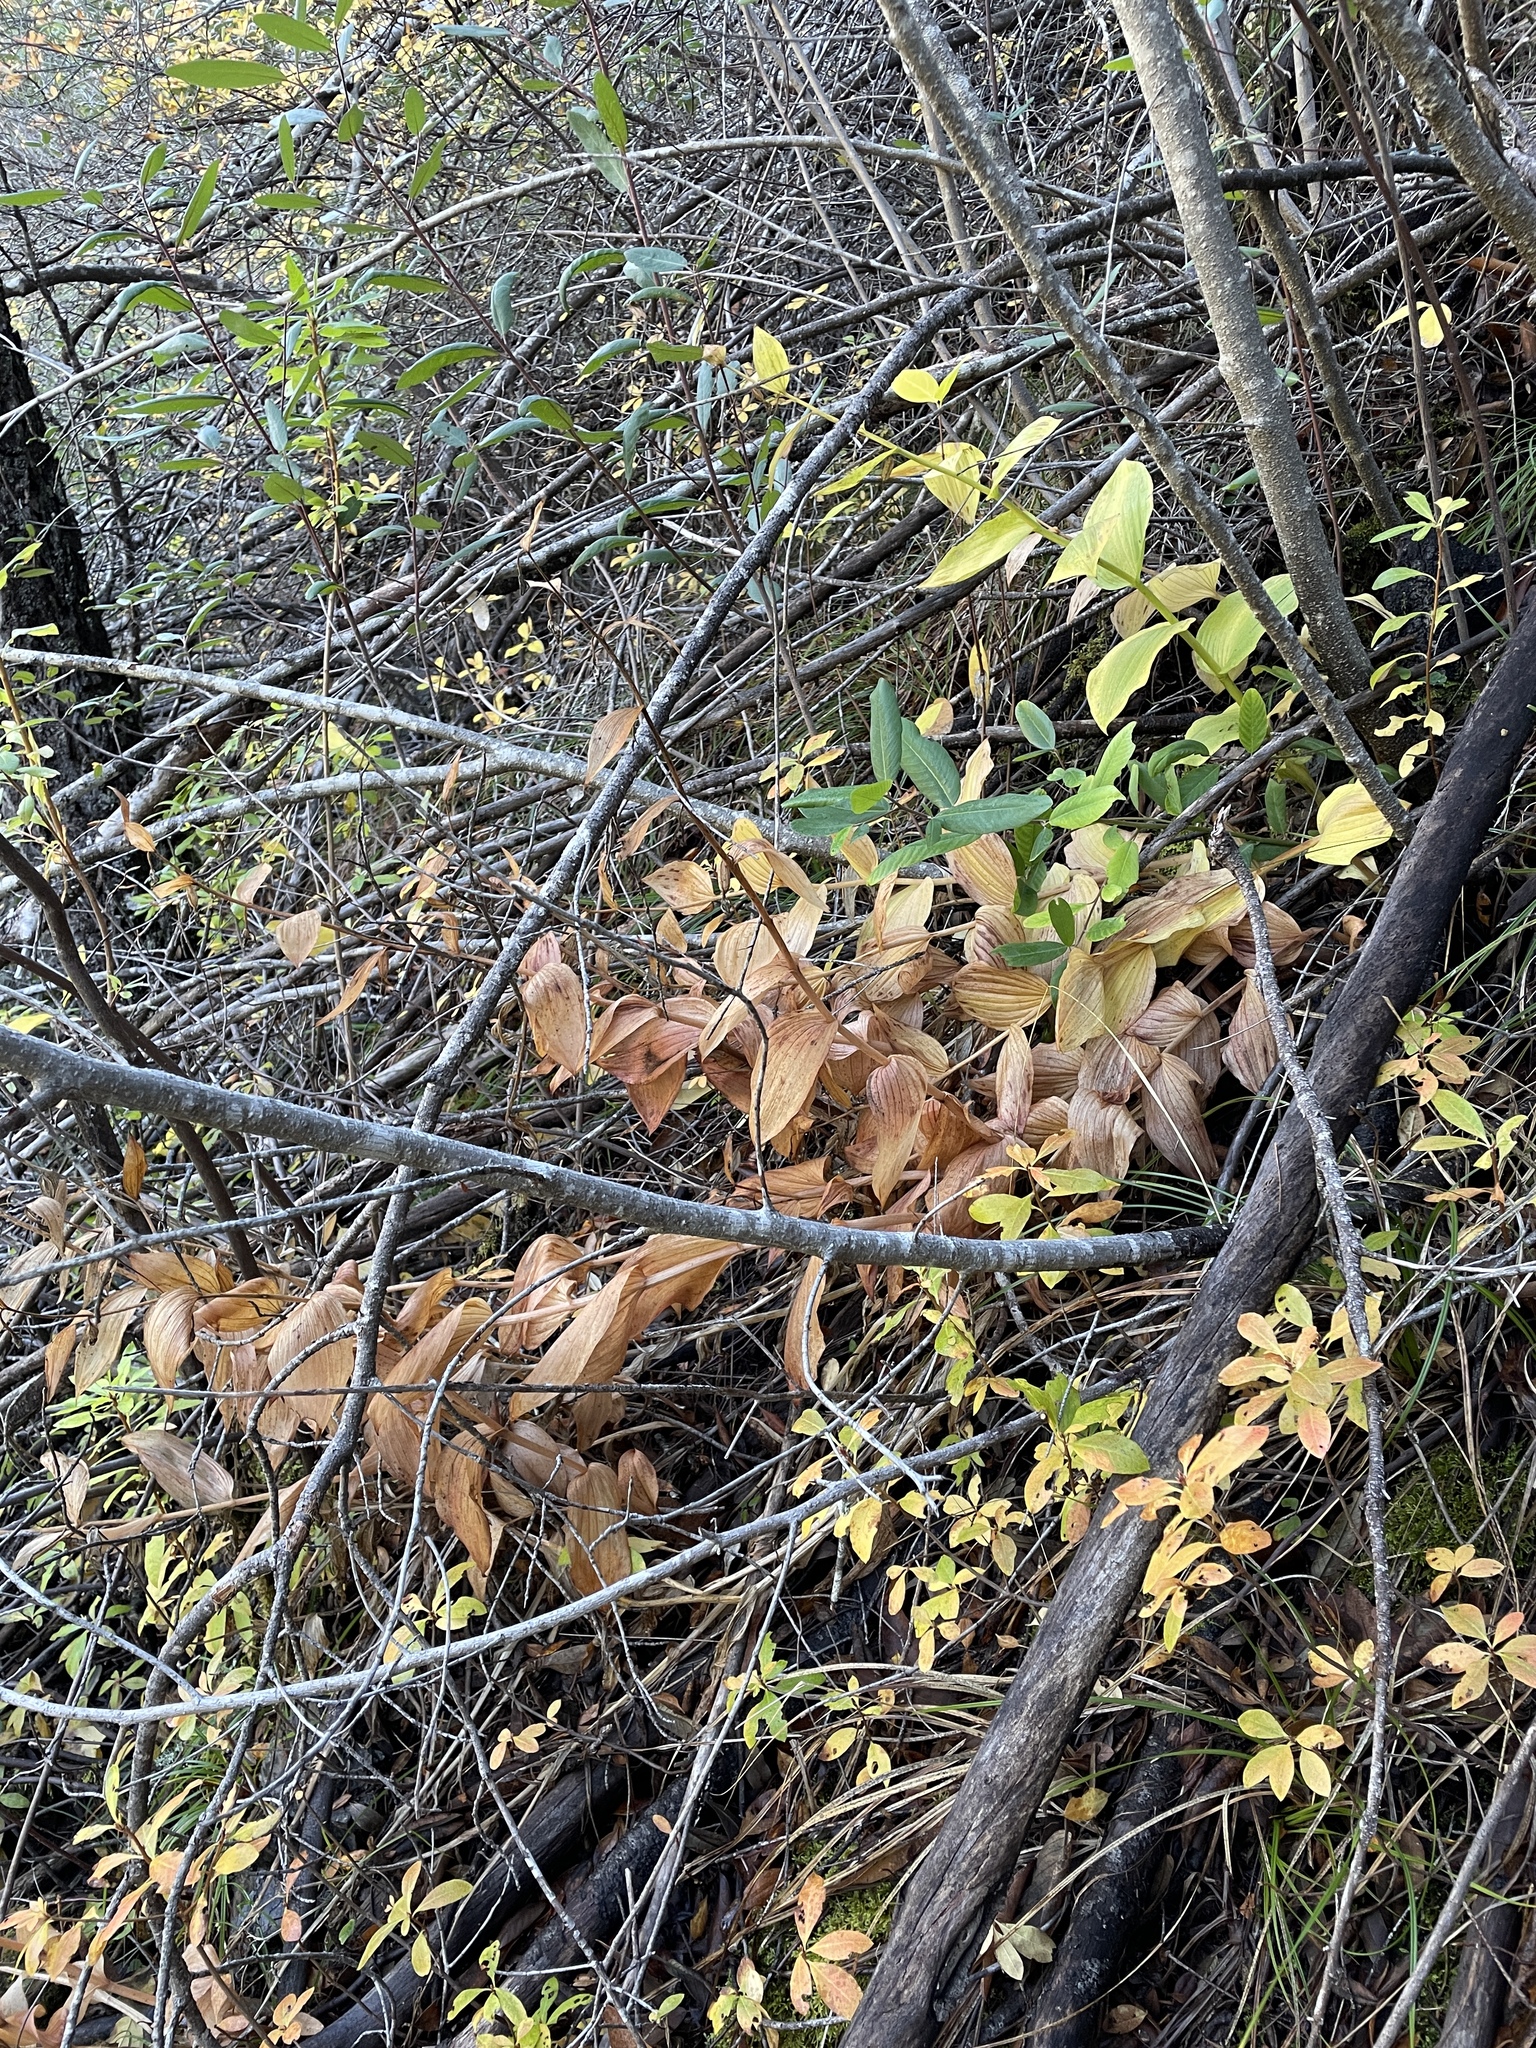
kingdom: Plantae
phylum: Tracheophyta
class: Liliopsida
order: Asparagales
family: Orchidaceae
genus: Cypripedium
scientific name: Cypripedium californicum
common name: California lady's slipper
